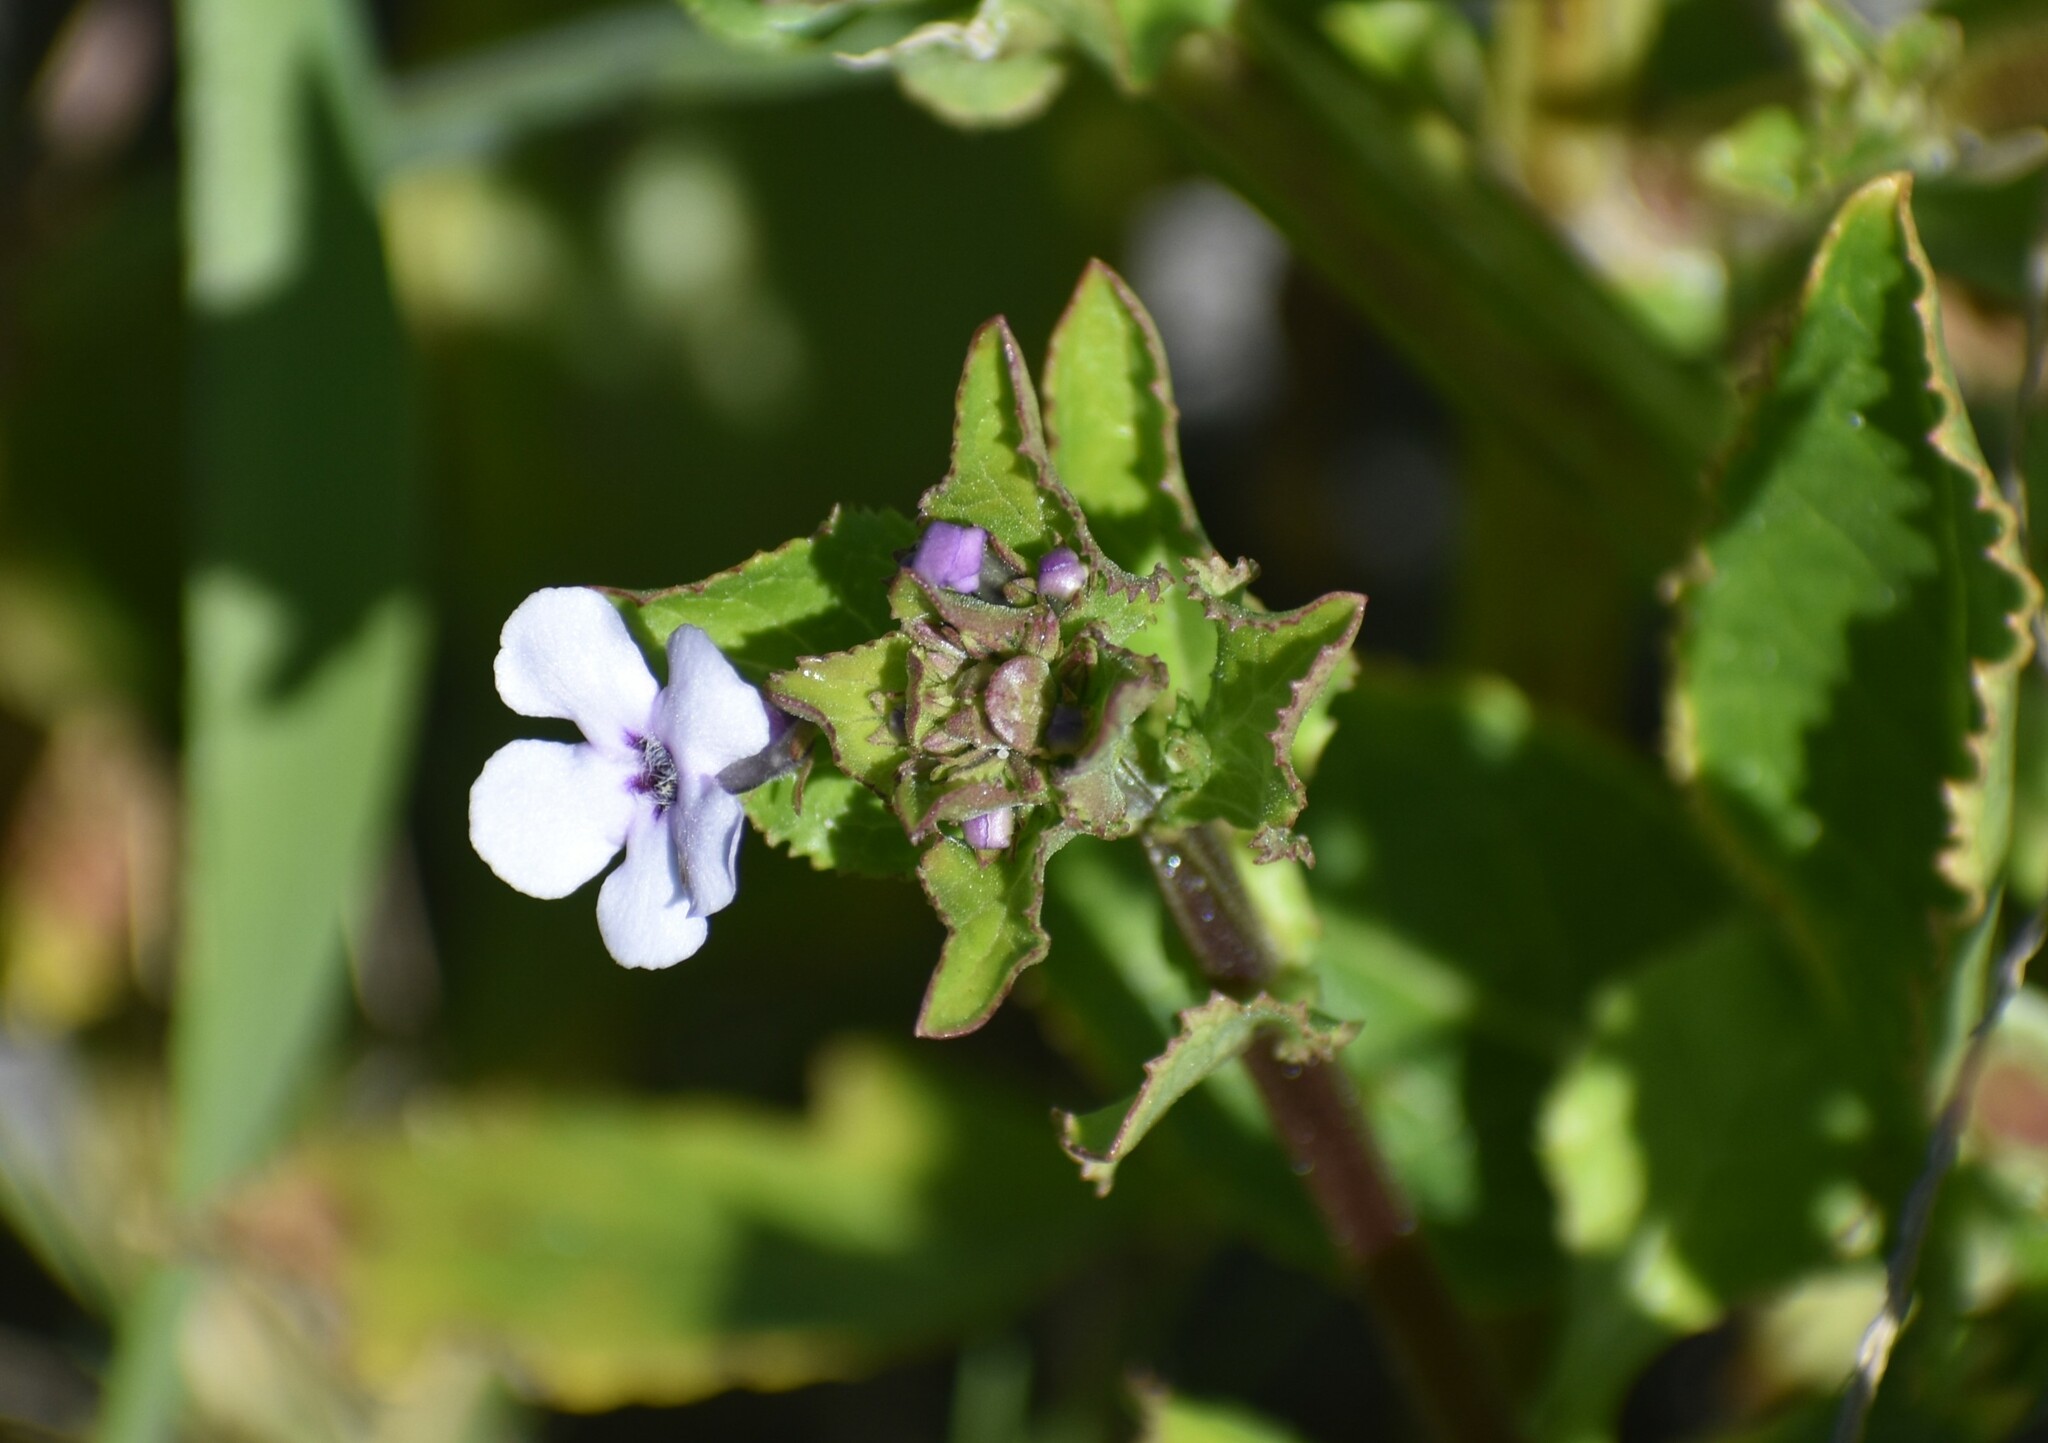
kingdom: Plantae
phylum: Tracheophyta
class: Magnoliopsida
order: Lamiales
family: Scrophulariaceae
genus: Teedia
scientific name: Teedia lucida
